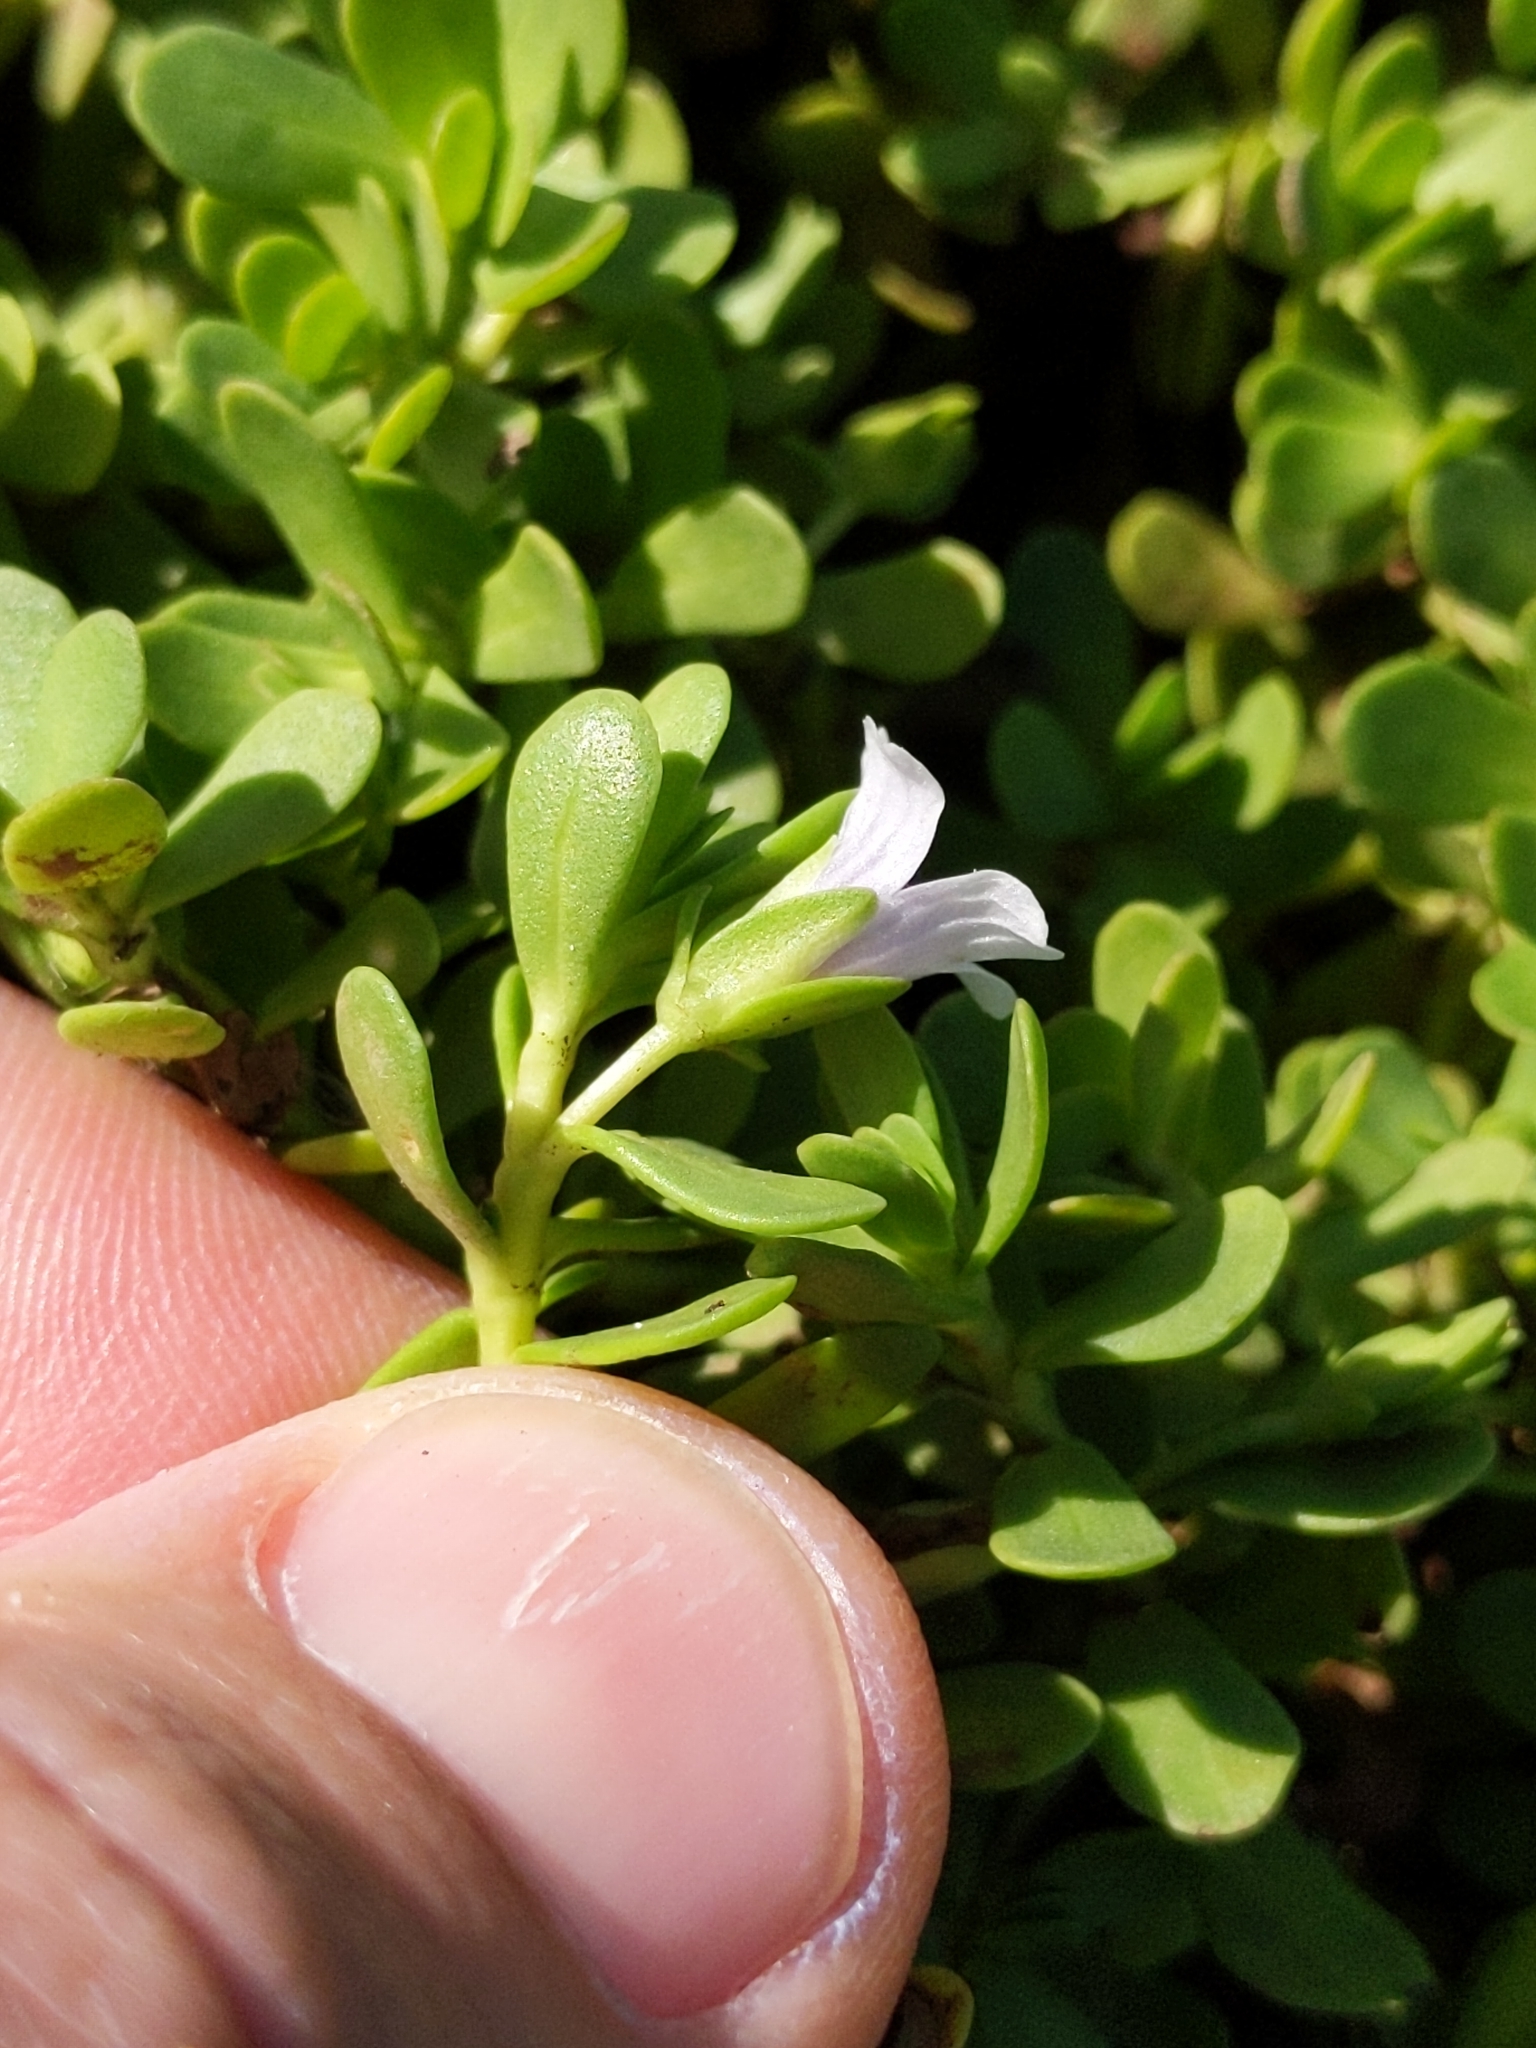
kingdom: Plantae
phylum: Tracheophyta
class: Magnoliopsida
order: Lamiales
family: Plantaginaceae
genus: Bacopa
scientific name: Bacopa monnieri
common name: Indian-pennywort
